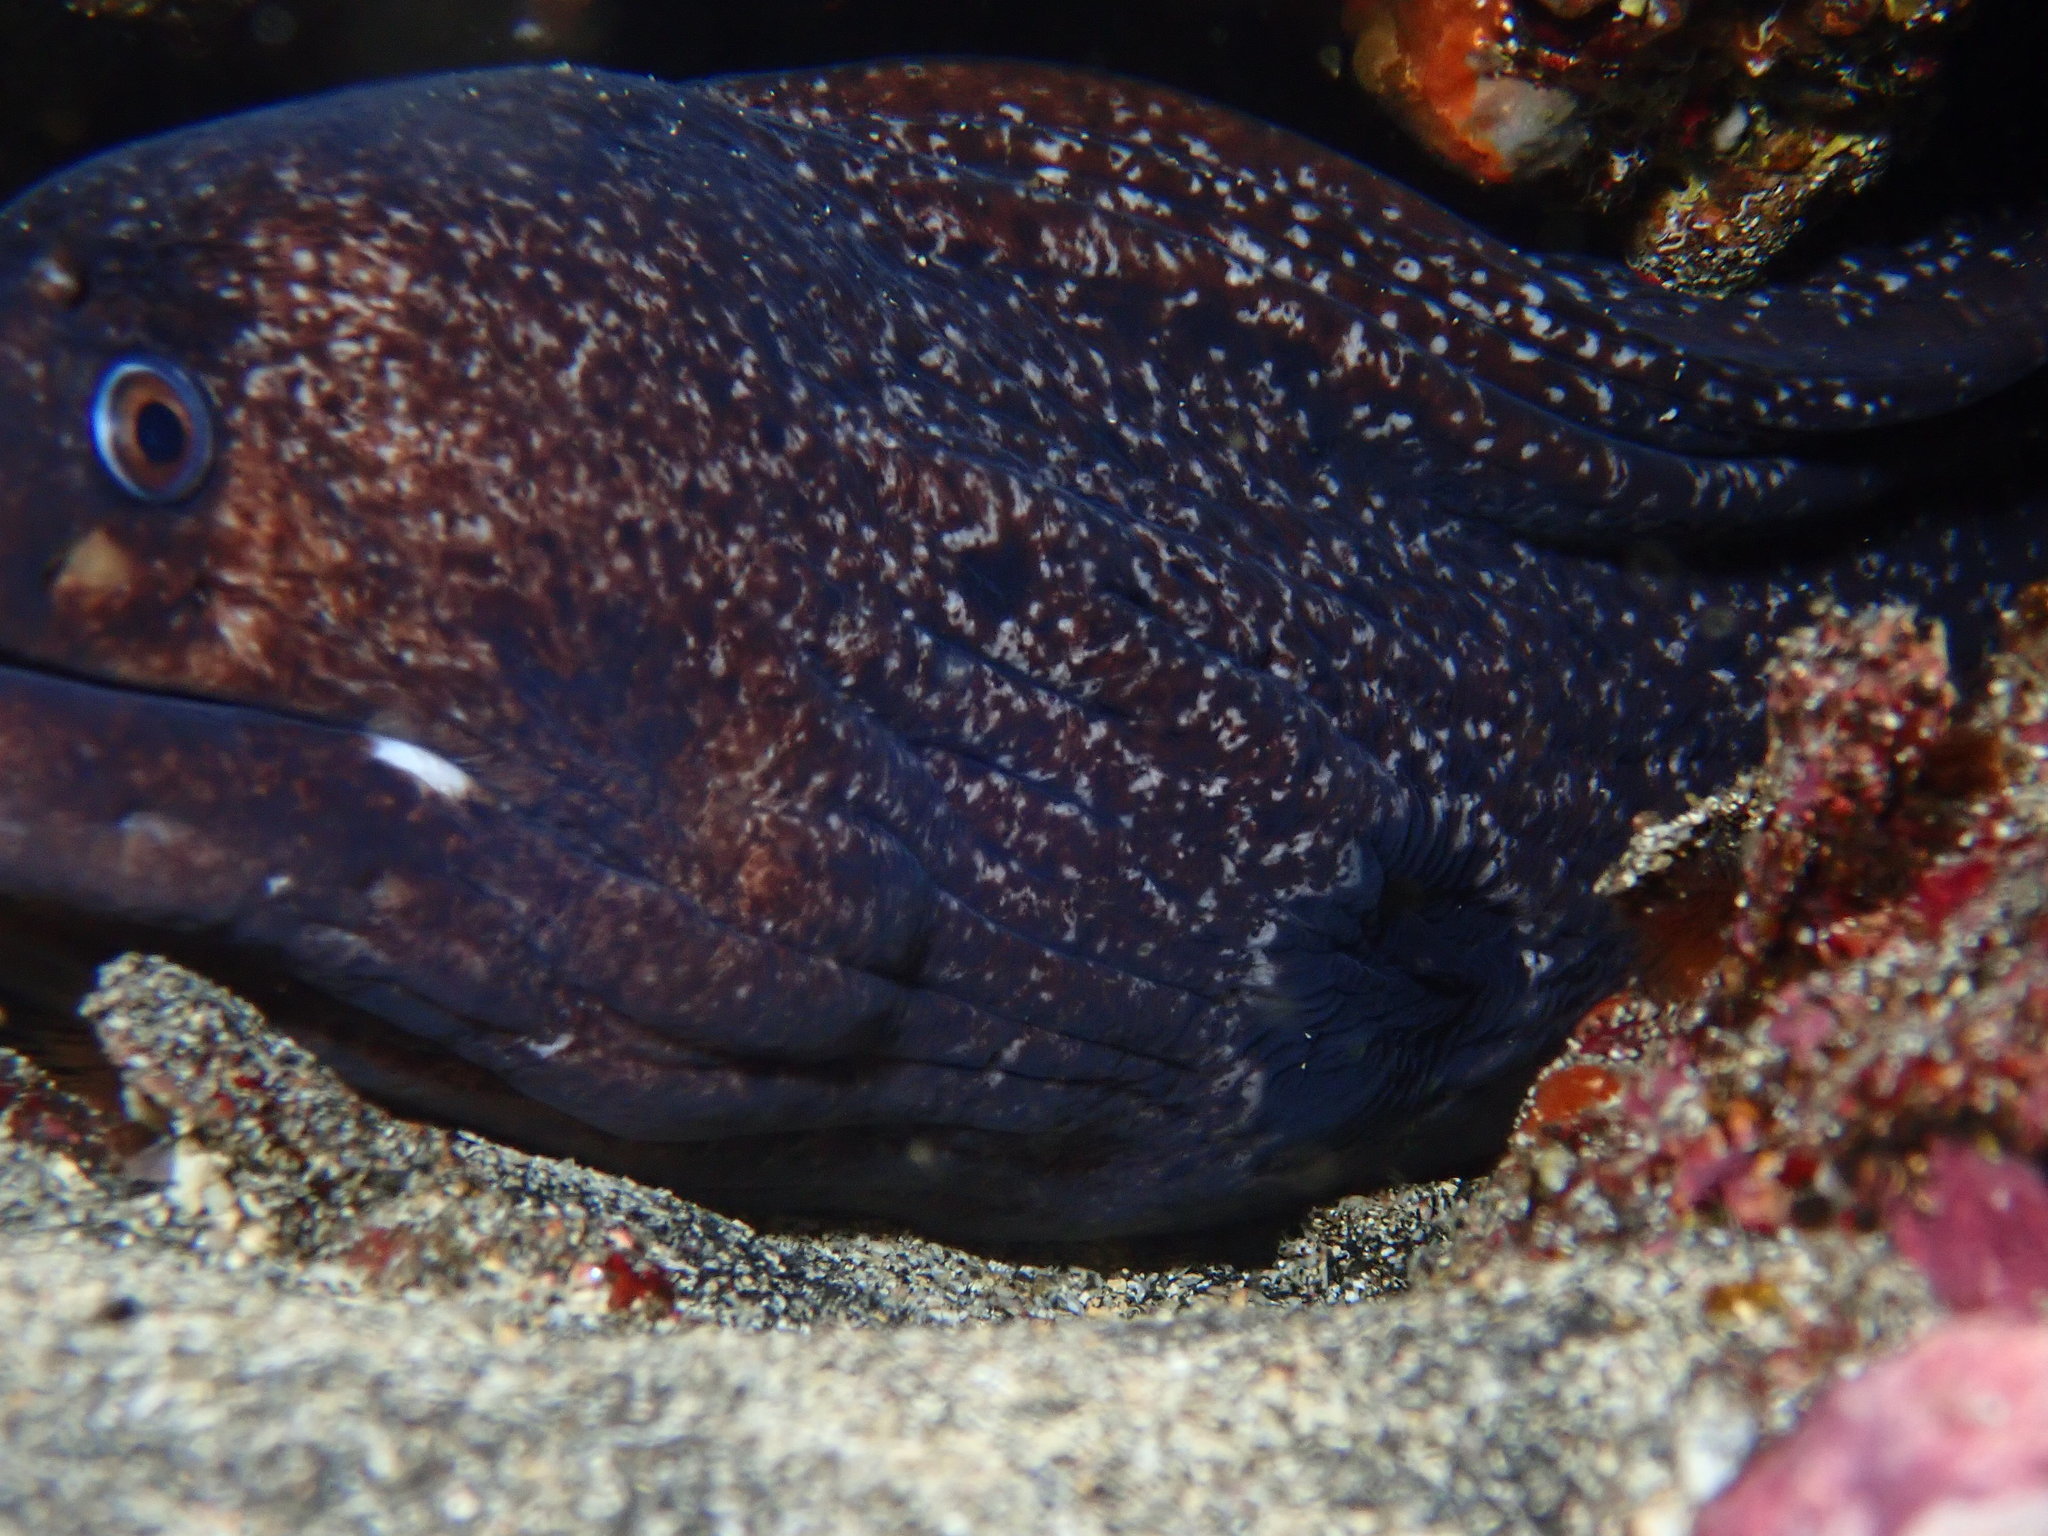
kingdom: Animalia
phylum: Chordata
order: Anguilliformes
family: Muraenidae
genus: Muraena
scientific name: Muraena clepsydra
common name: Hourglass moray
